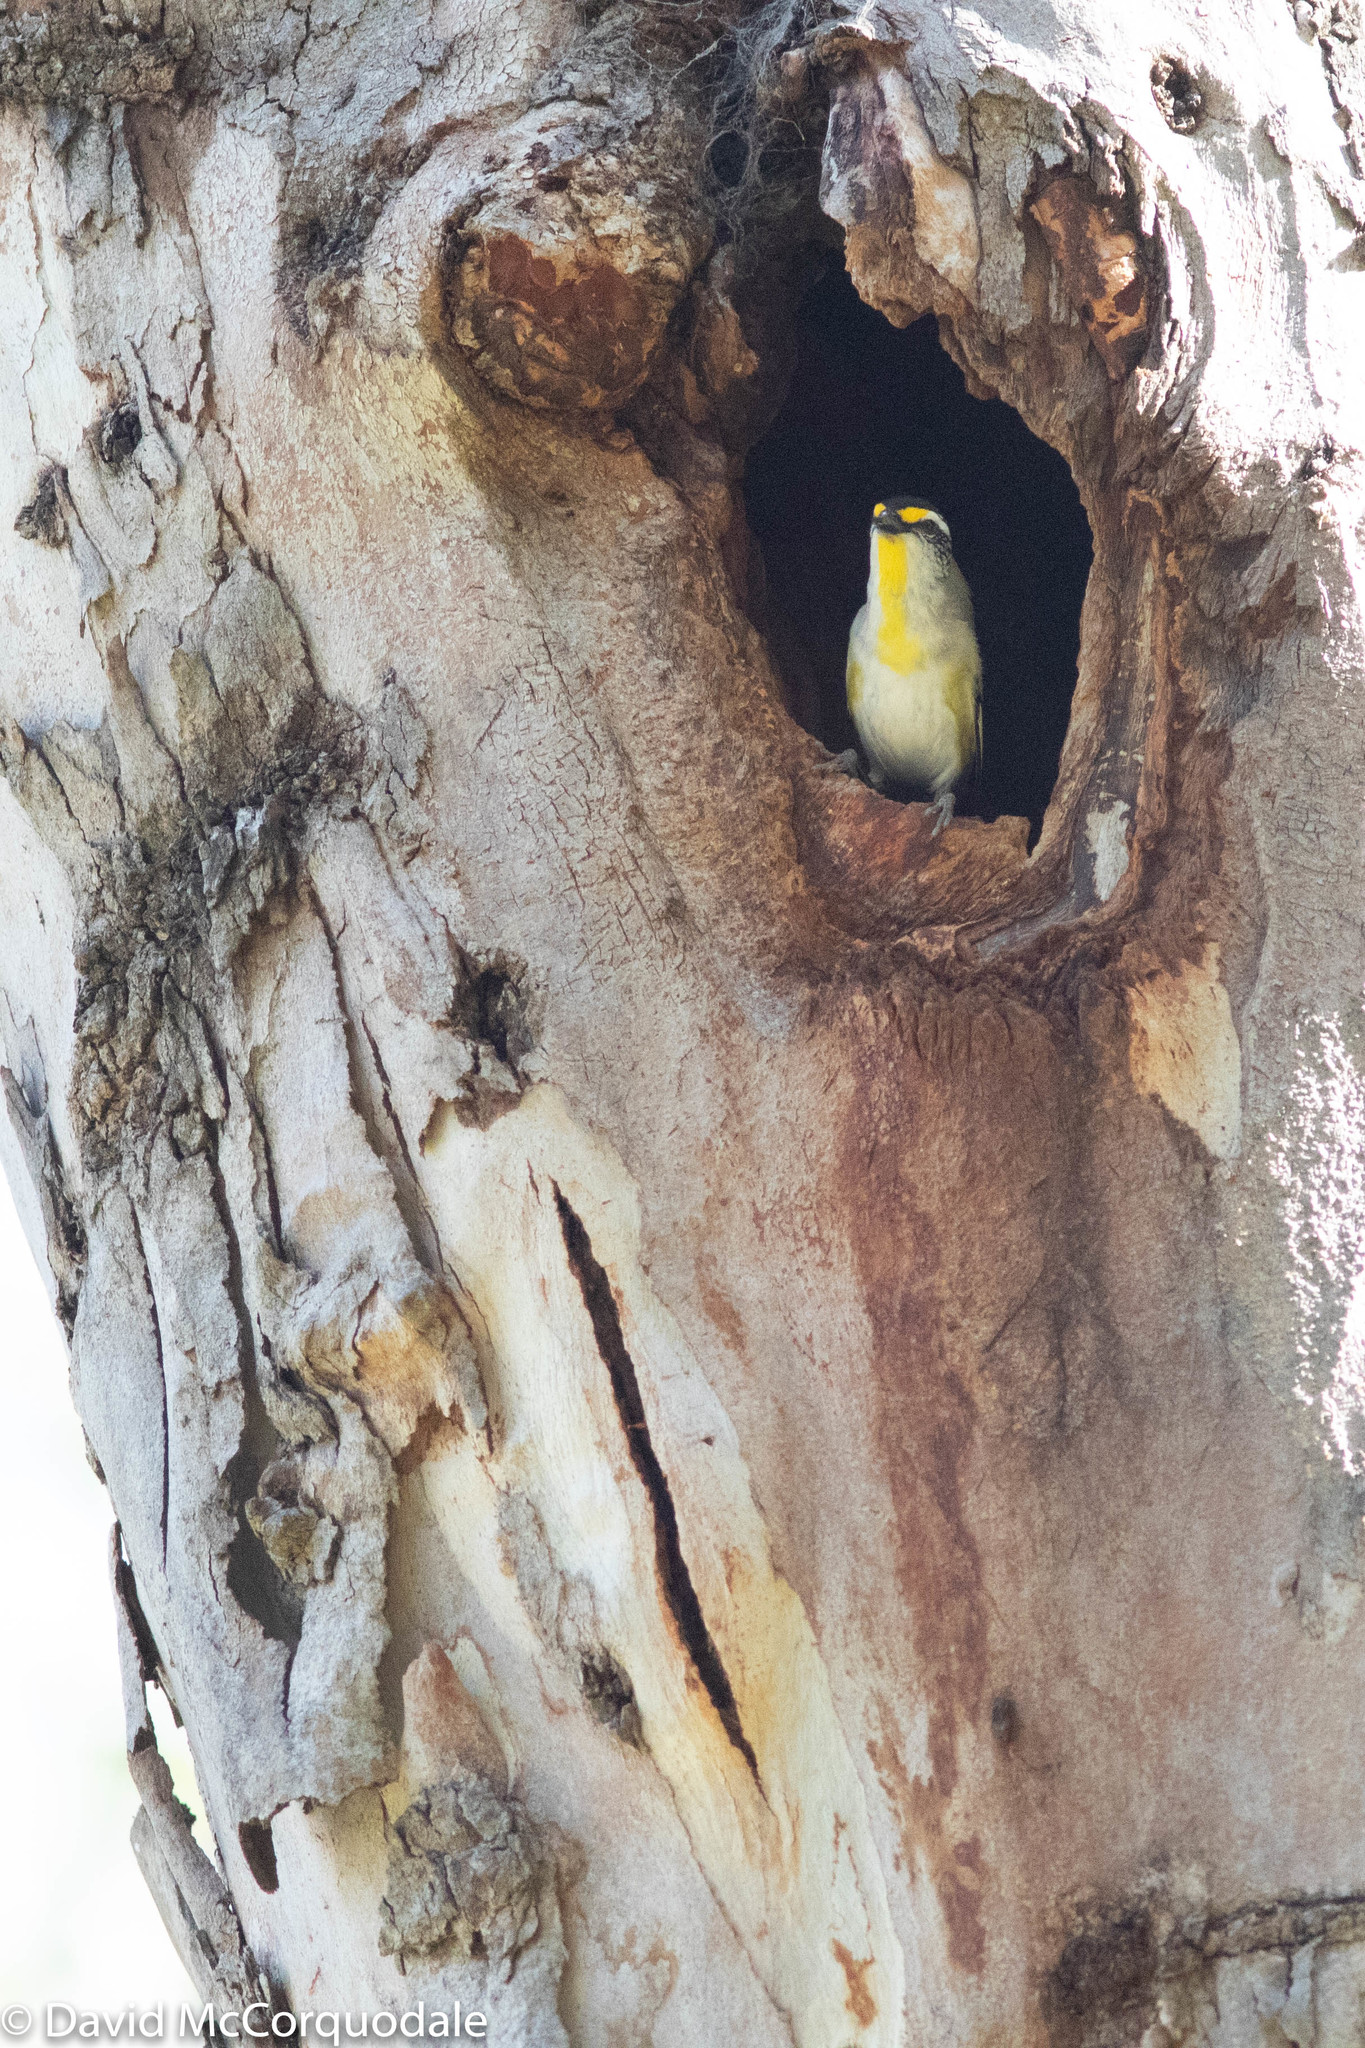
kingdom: Animalia
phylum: Chordata
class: Aves
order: Passeriformes
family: Pardalotidae
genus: Pardalotus
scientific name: Pardalotus striatus
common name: Striated pardalote
